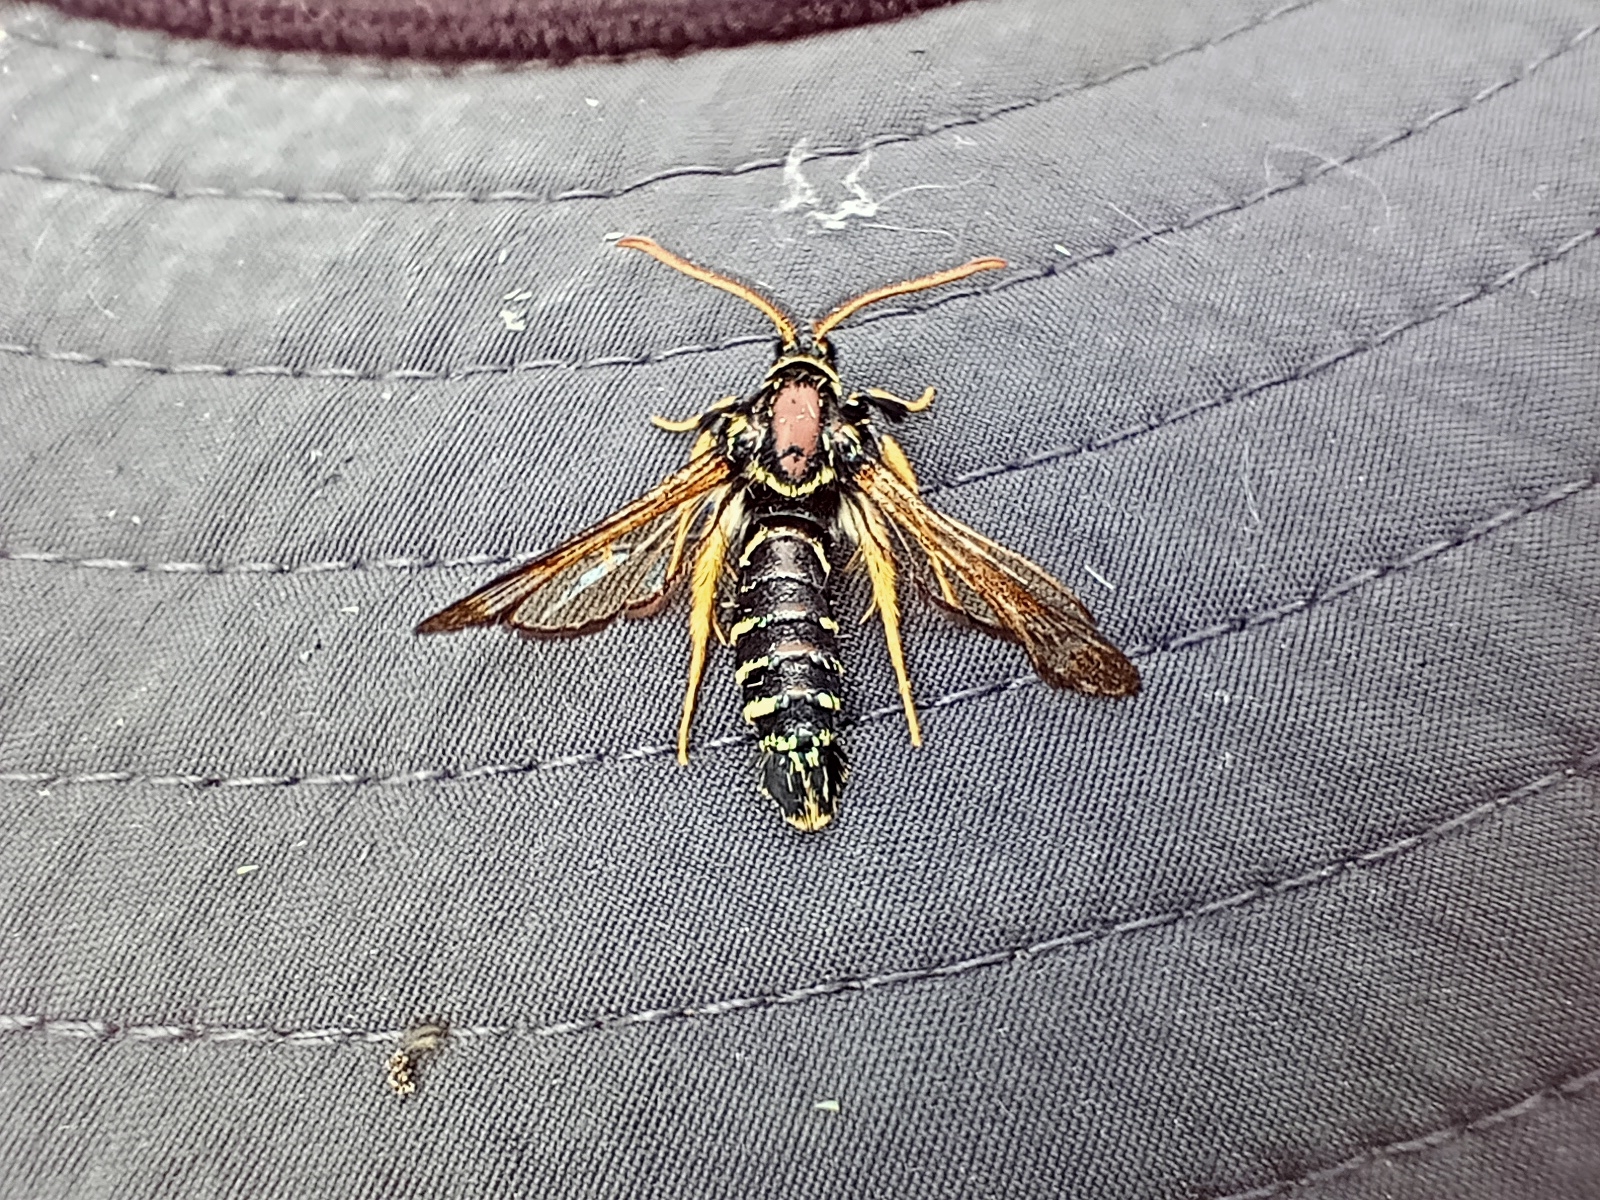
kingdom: Animalia
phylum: Arthropoda
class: Insecta
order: Lepidoptera
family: Sesiidae
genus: Paranthrene
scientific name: Paranthrene insolitus
